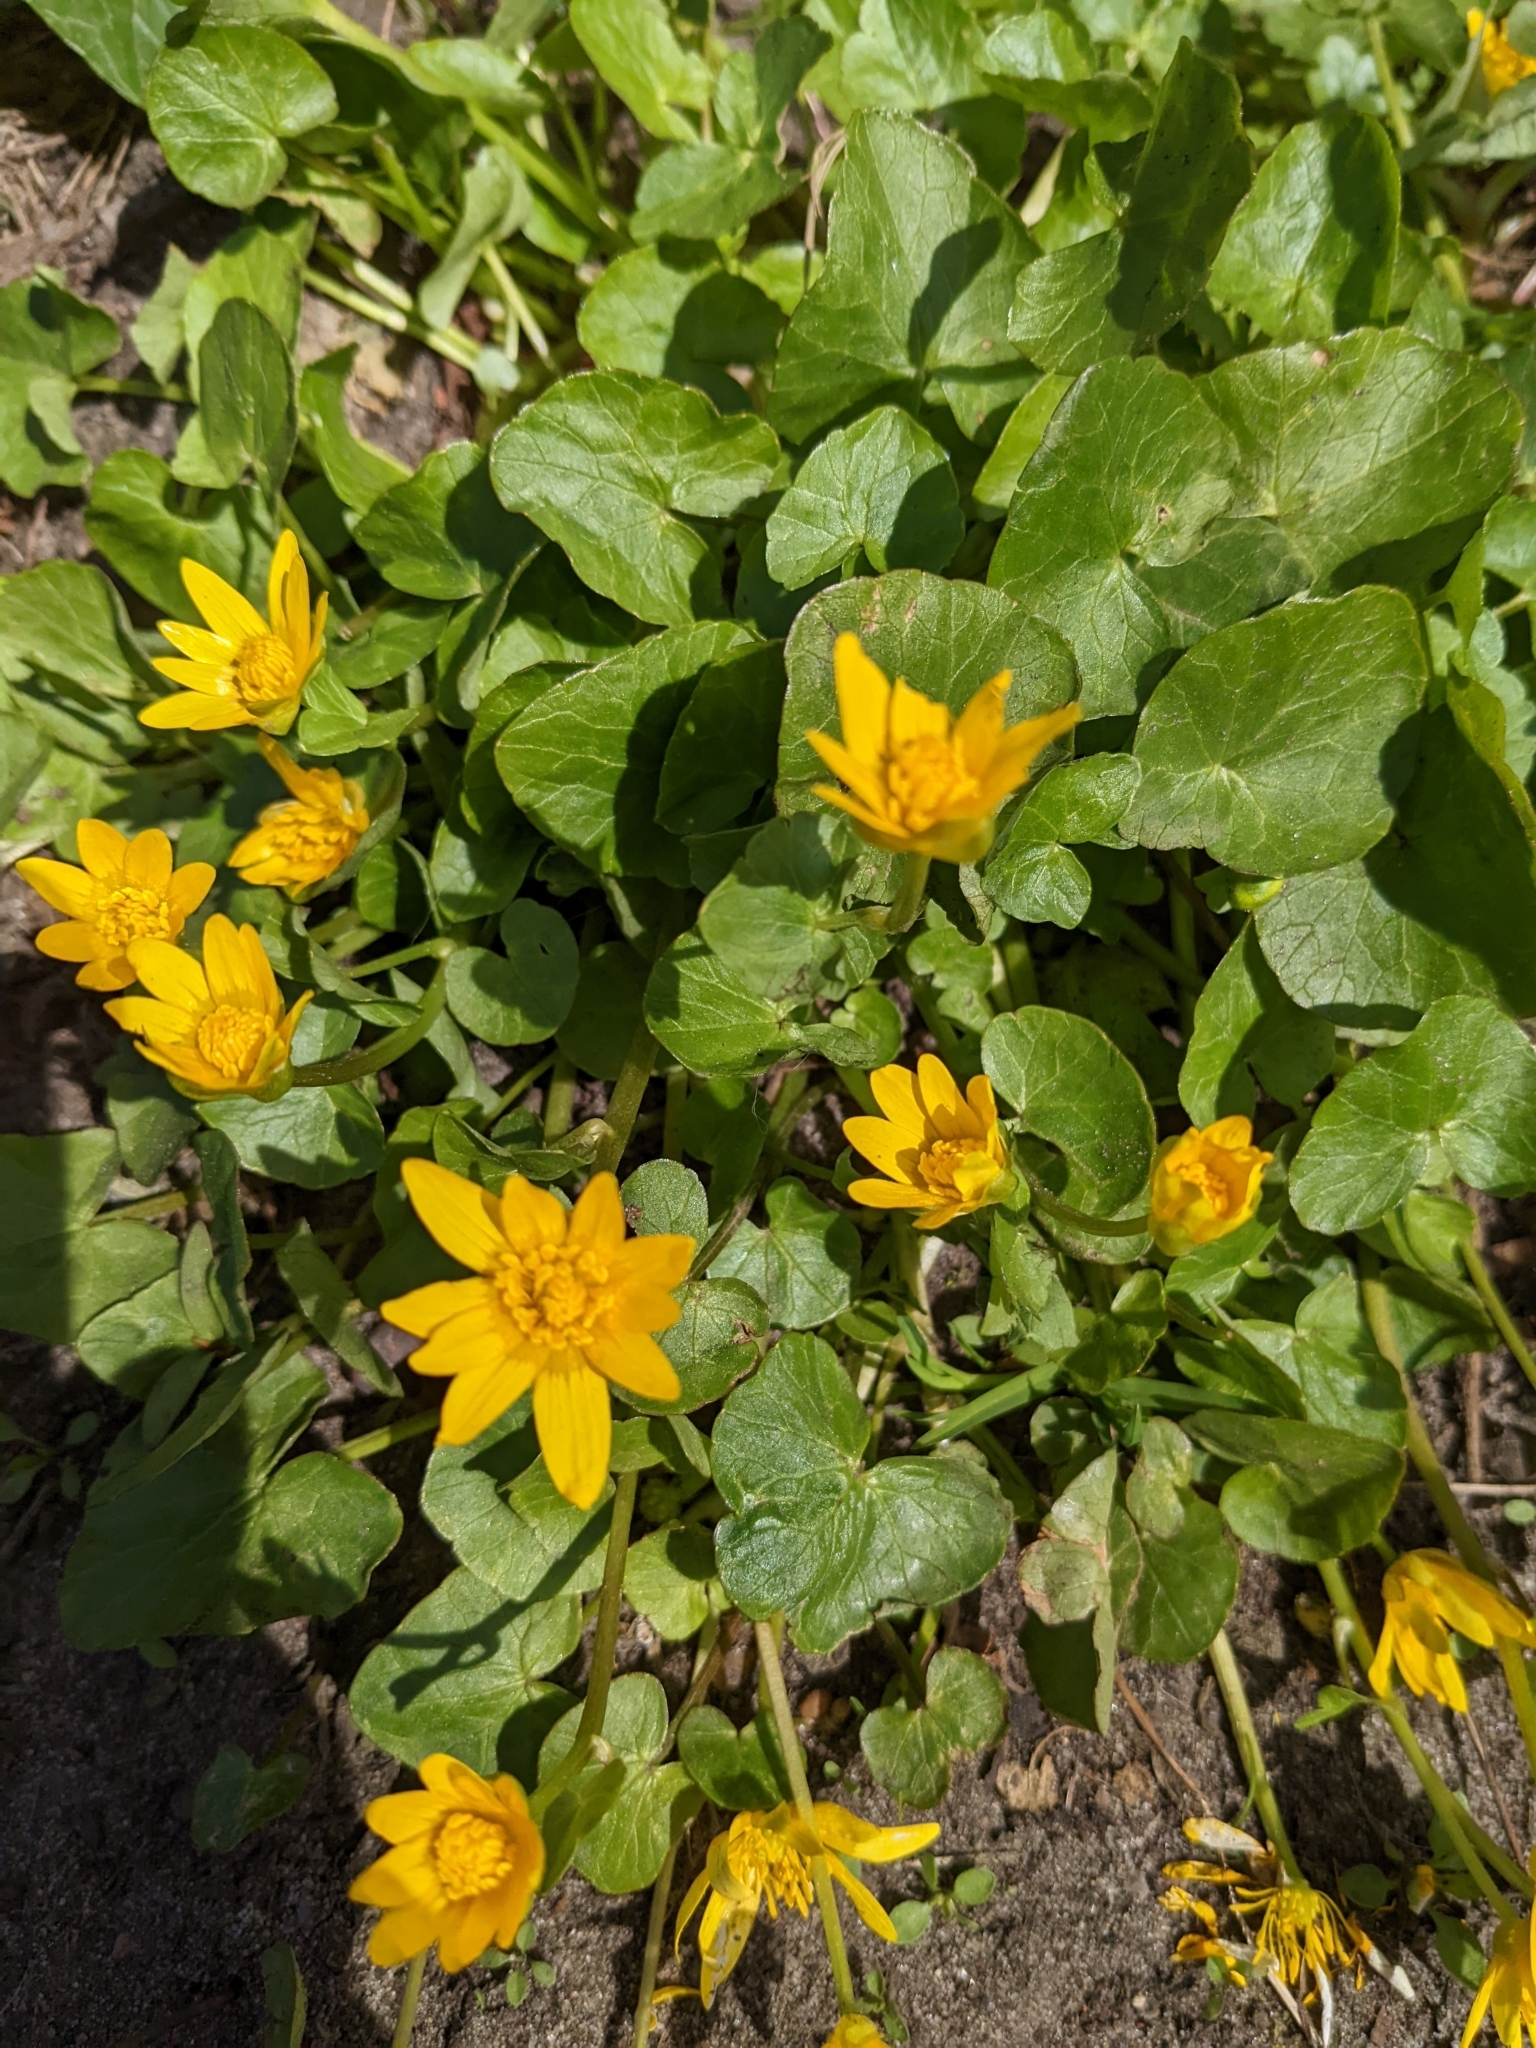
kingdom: Plantae
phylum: Tracheophyta
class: Magnoliopsida
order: Ranunculales
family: Ranunculaceae
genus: Ficaria
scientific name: Ficaria verna
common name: Lesser celandine
